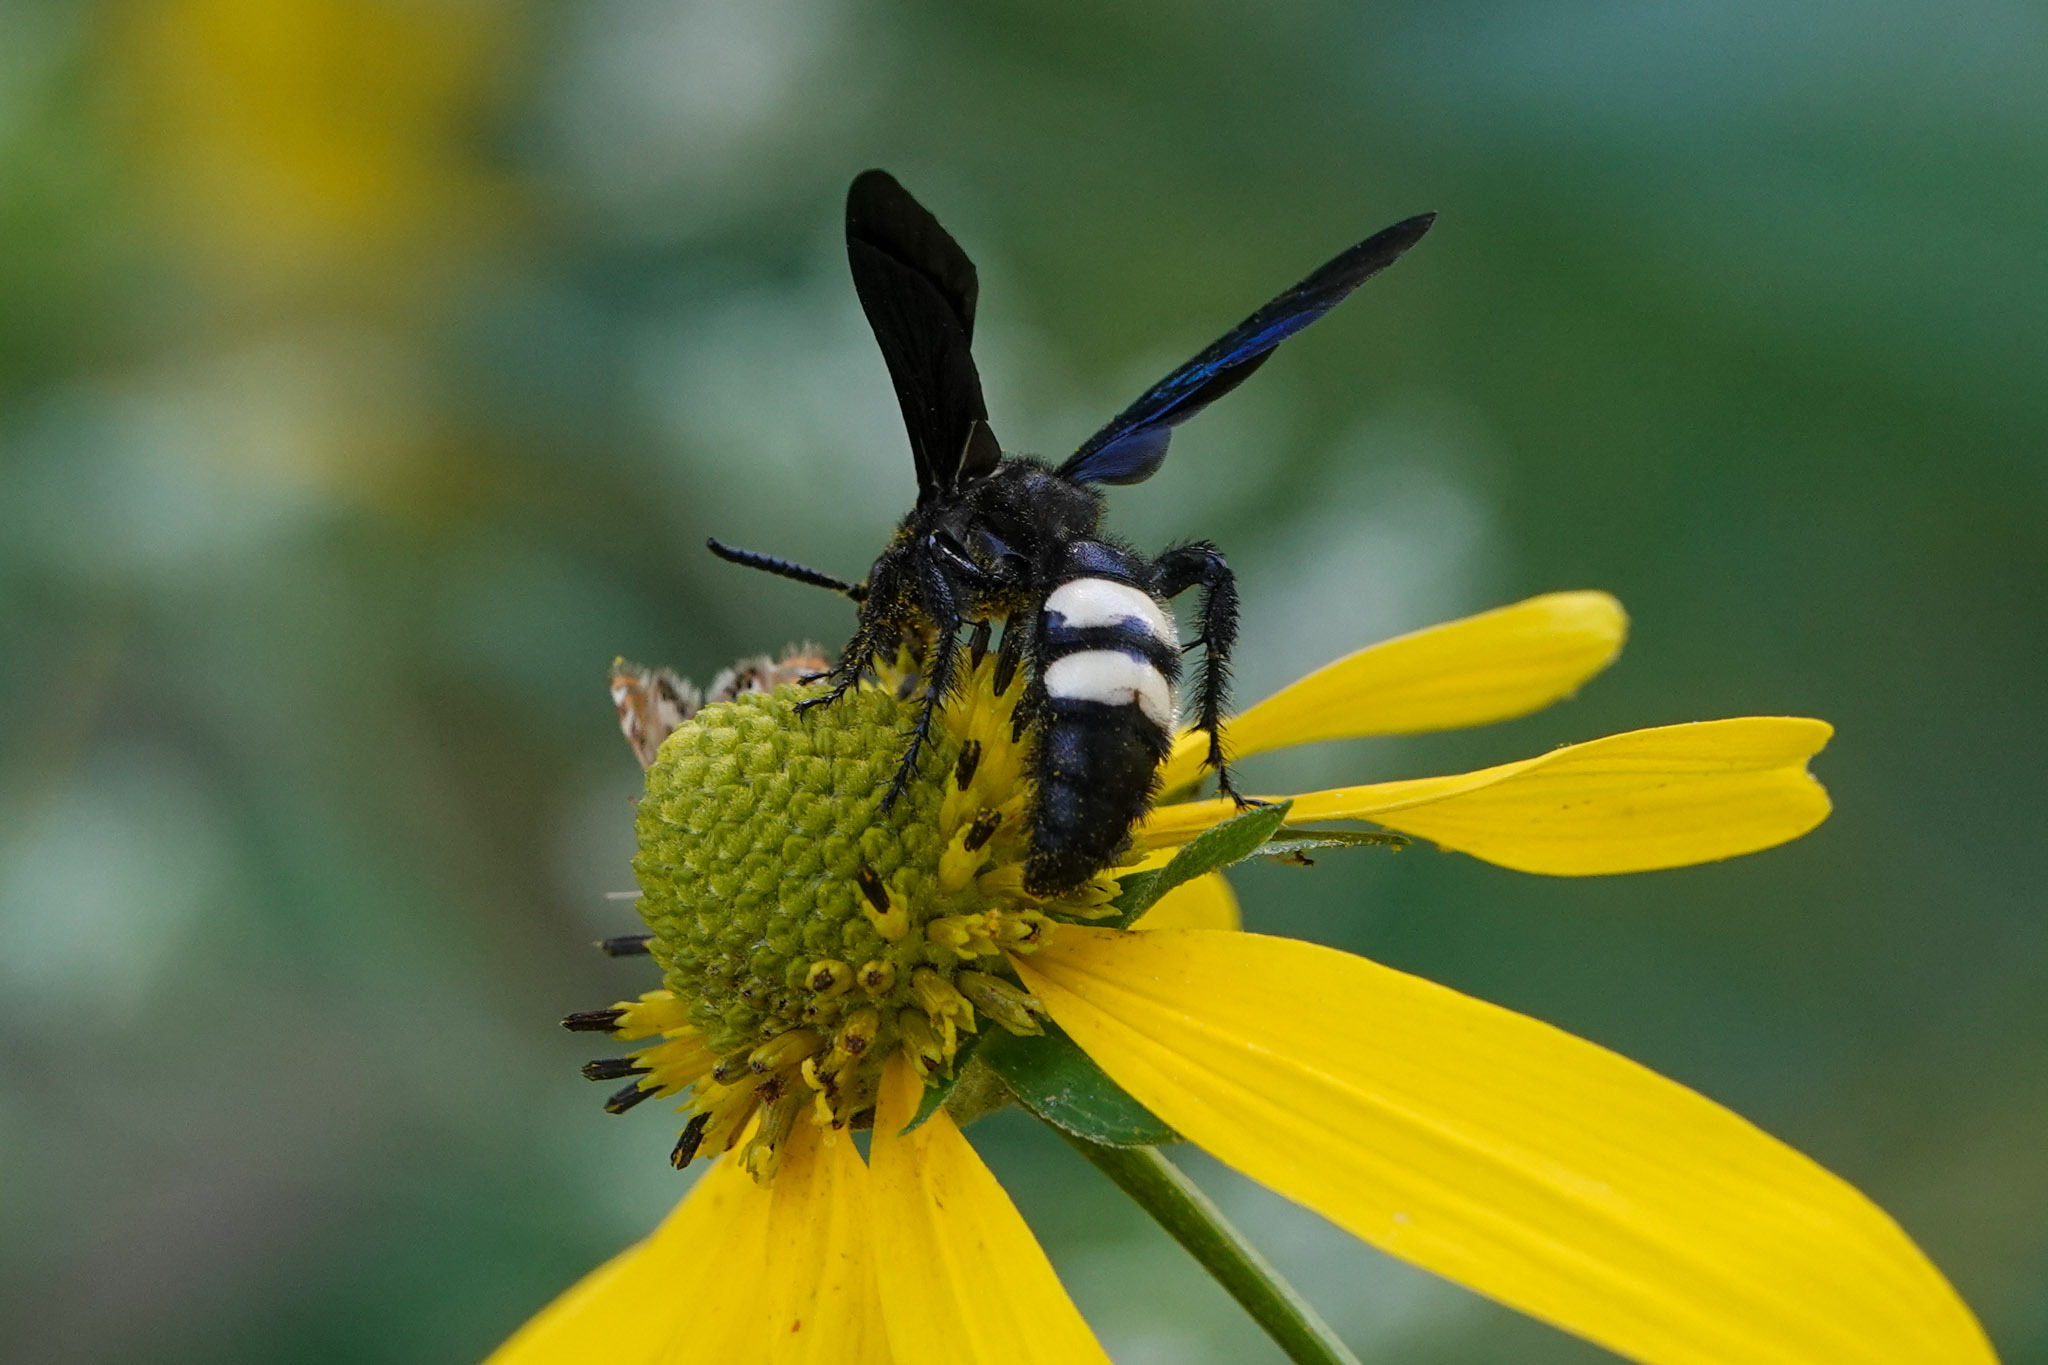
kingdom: Animalia
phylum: Arthropoda
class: Insecta
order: Hymenoptera
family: Scoliidae
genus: Scolia
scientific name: Scolia bicincta
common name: Double-banded scoliid wasp
